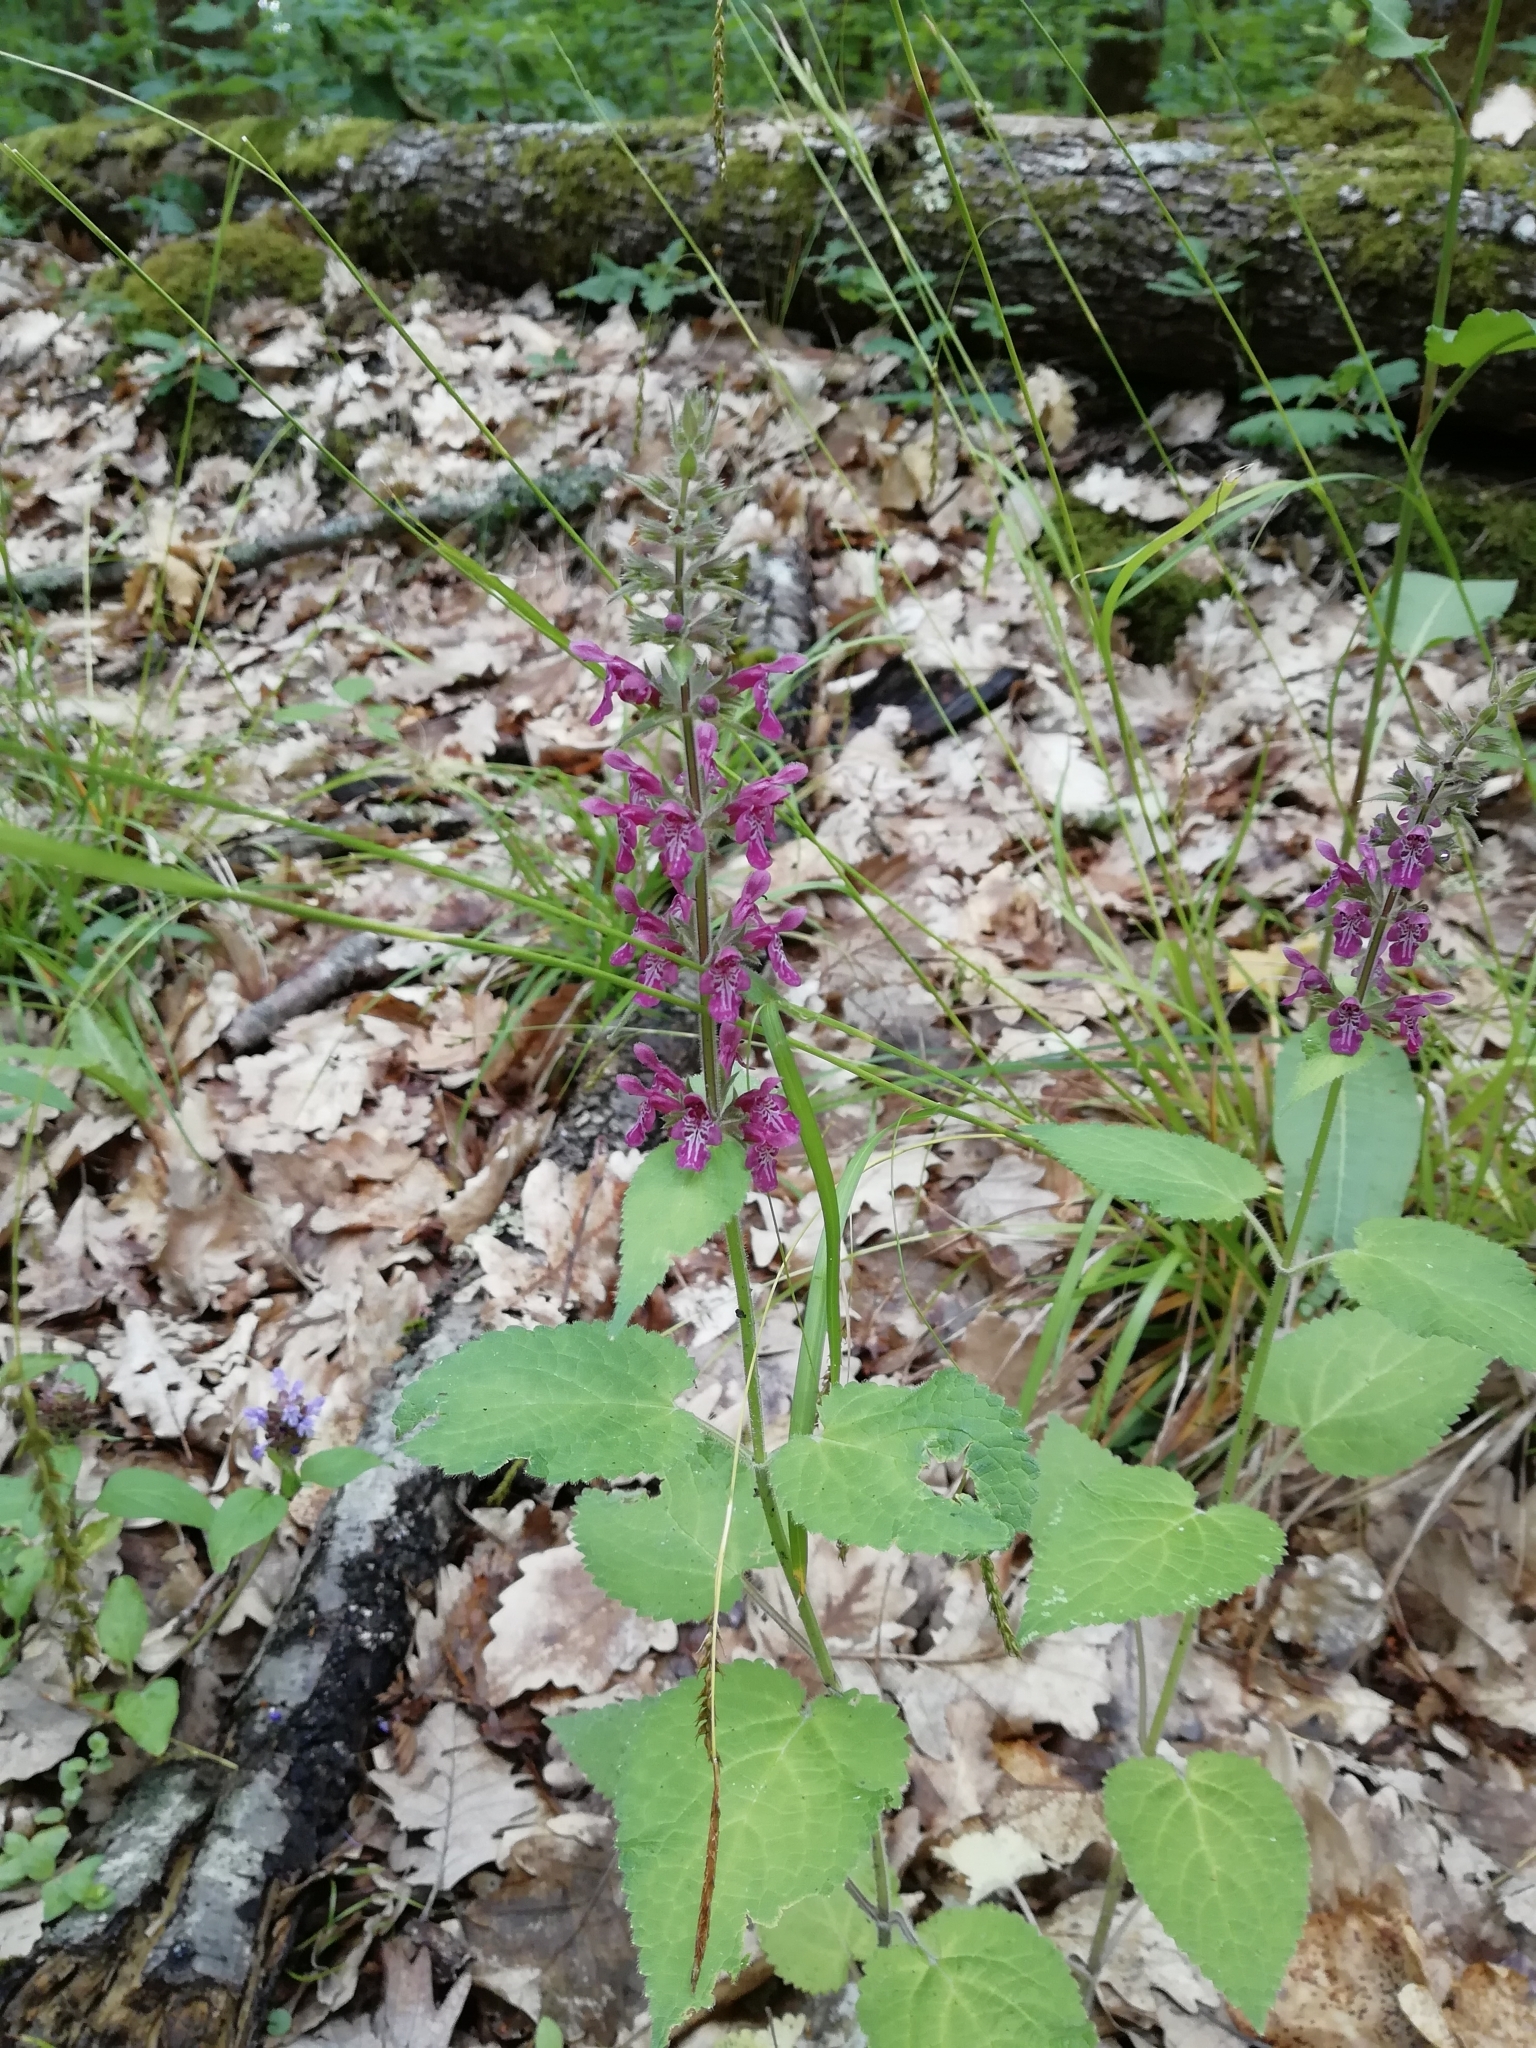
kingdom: Plantae
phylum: Tracheophyta
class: Magnoliopsida
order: Lamiales
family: Lamiaceae
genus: Stachys
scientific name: Stachys sylvatica
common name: Hedge woundwort
